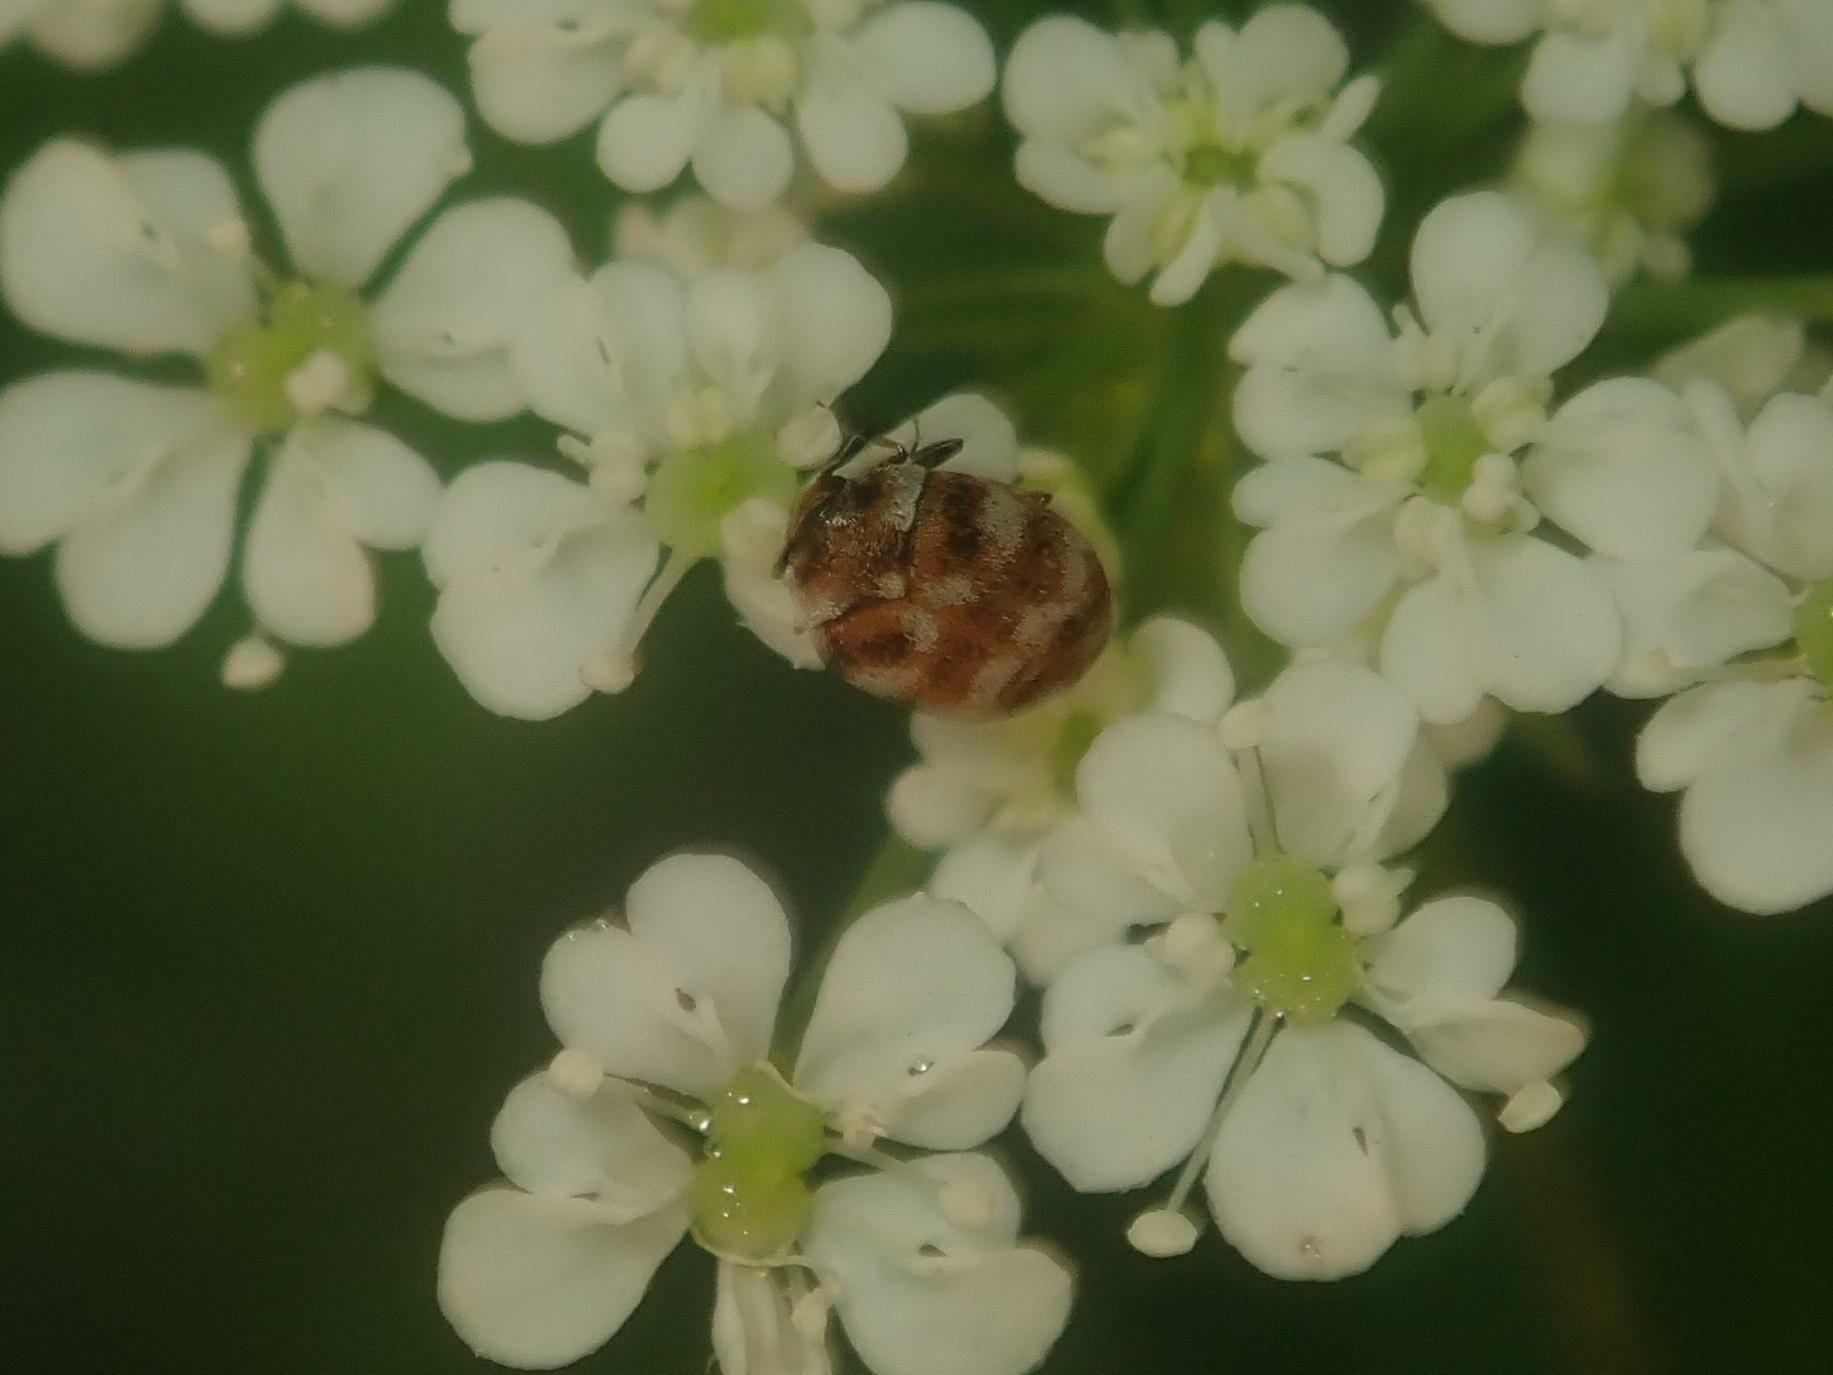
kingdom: Animalia
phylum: Arthropoda
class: Insecta
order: Coleoptera
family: Dermestidae
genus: Anthrenus
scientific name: Anthrenus verbasci
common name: Varied carpet beetle
